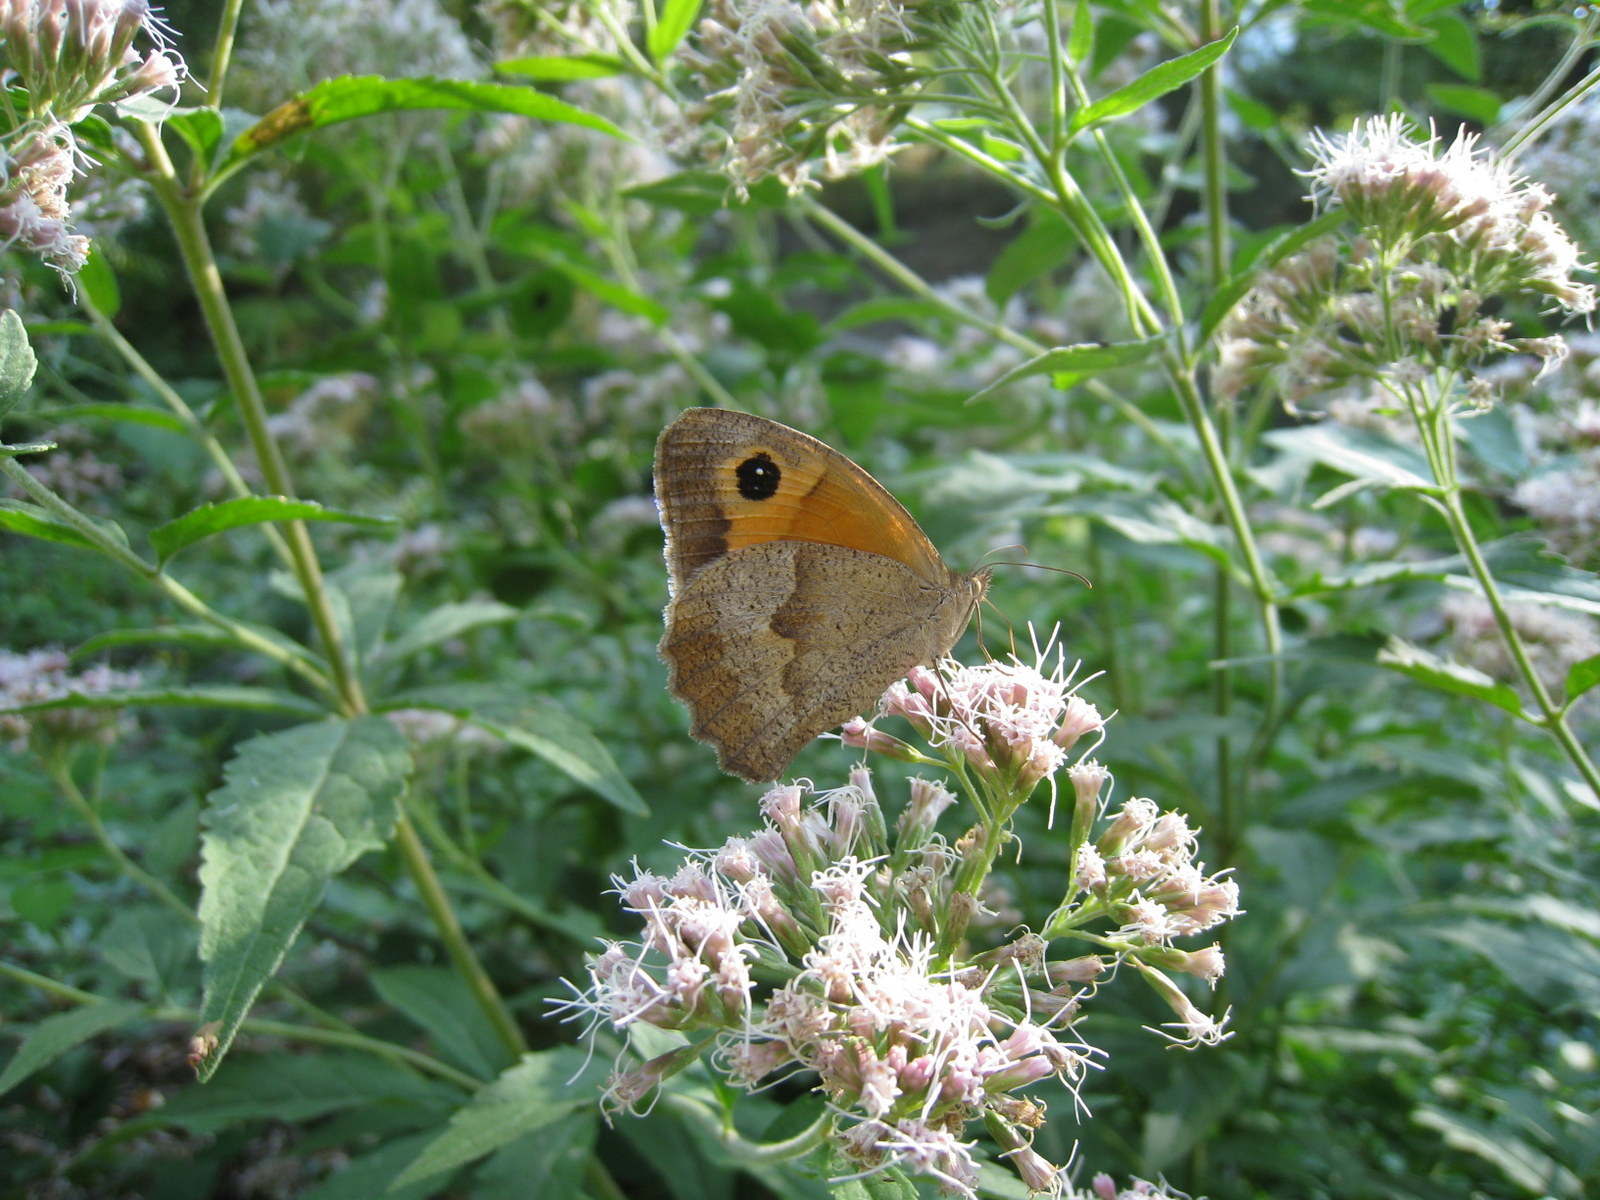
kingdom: Animalia
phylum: Arthropoda
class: Insecta
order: Lepidoptera
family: Nymphalidae
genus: Maniola
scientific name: Maniola jurtina
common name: Meadow brown
